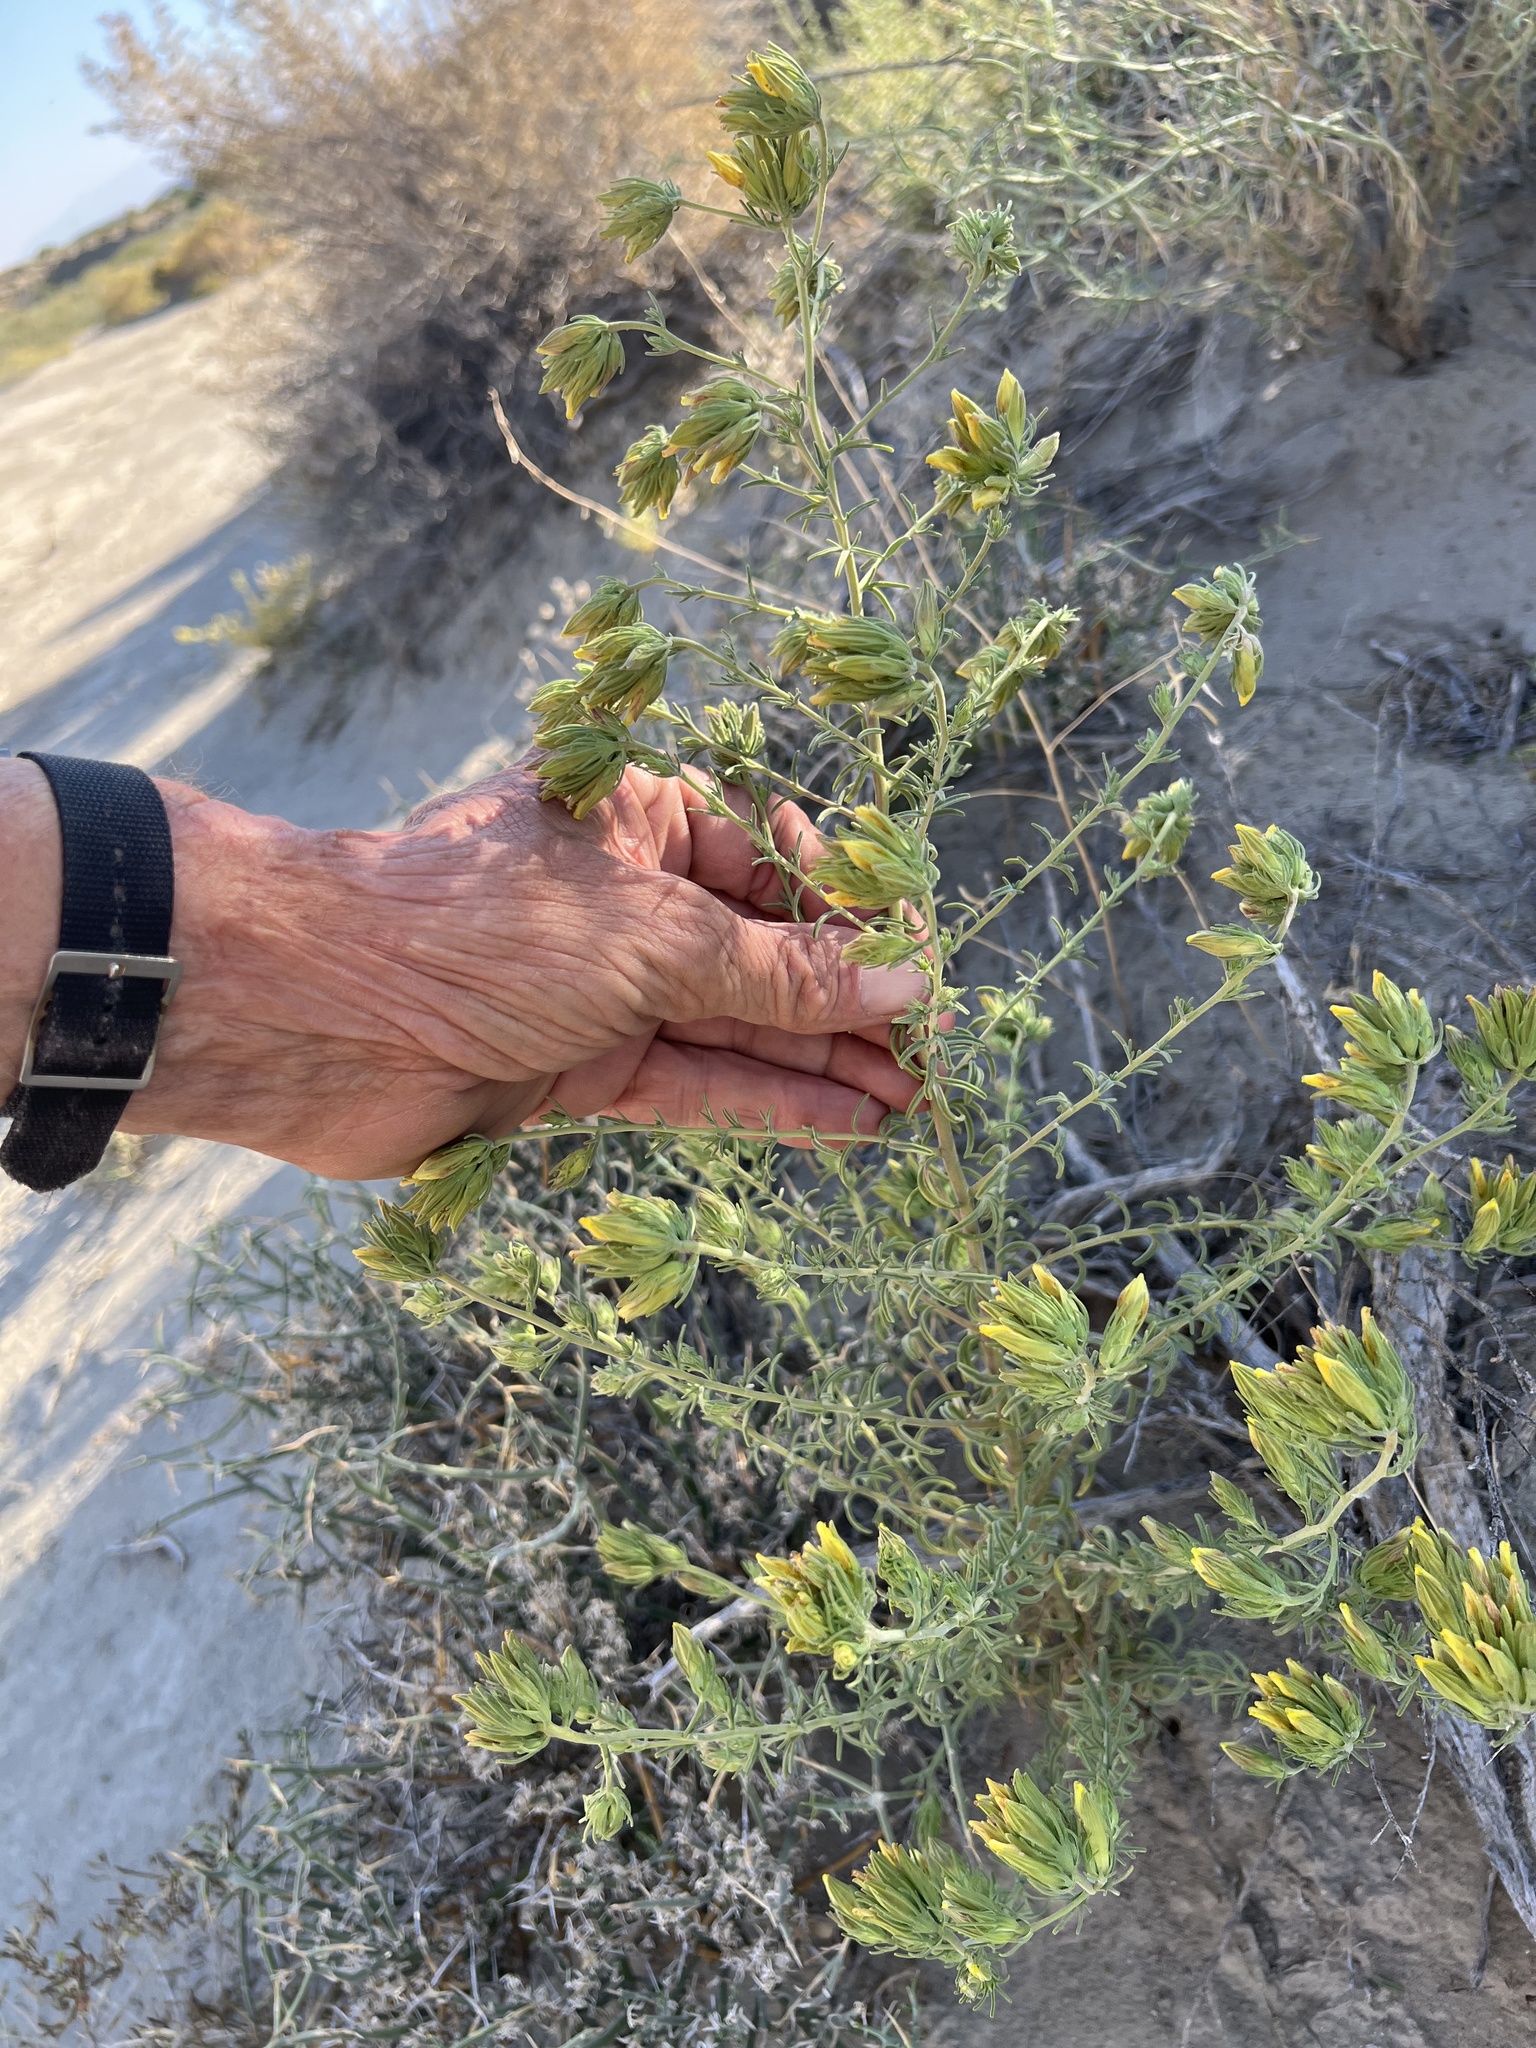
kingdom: Plantae
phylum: Tracheophyta
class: Magnoliopsida
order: Lamiales
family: Orobanchaceae
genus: Cordylanthus
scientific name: Cordylanthus ramosus
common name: Much-branched bird's-beak
